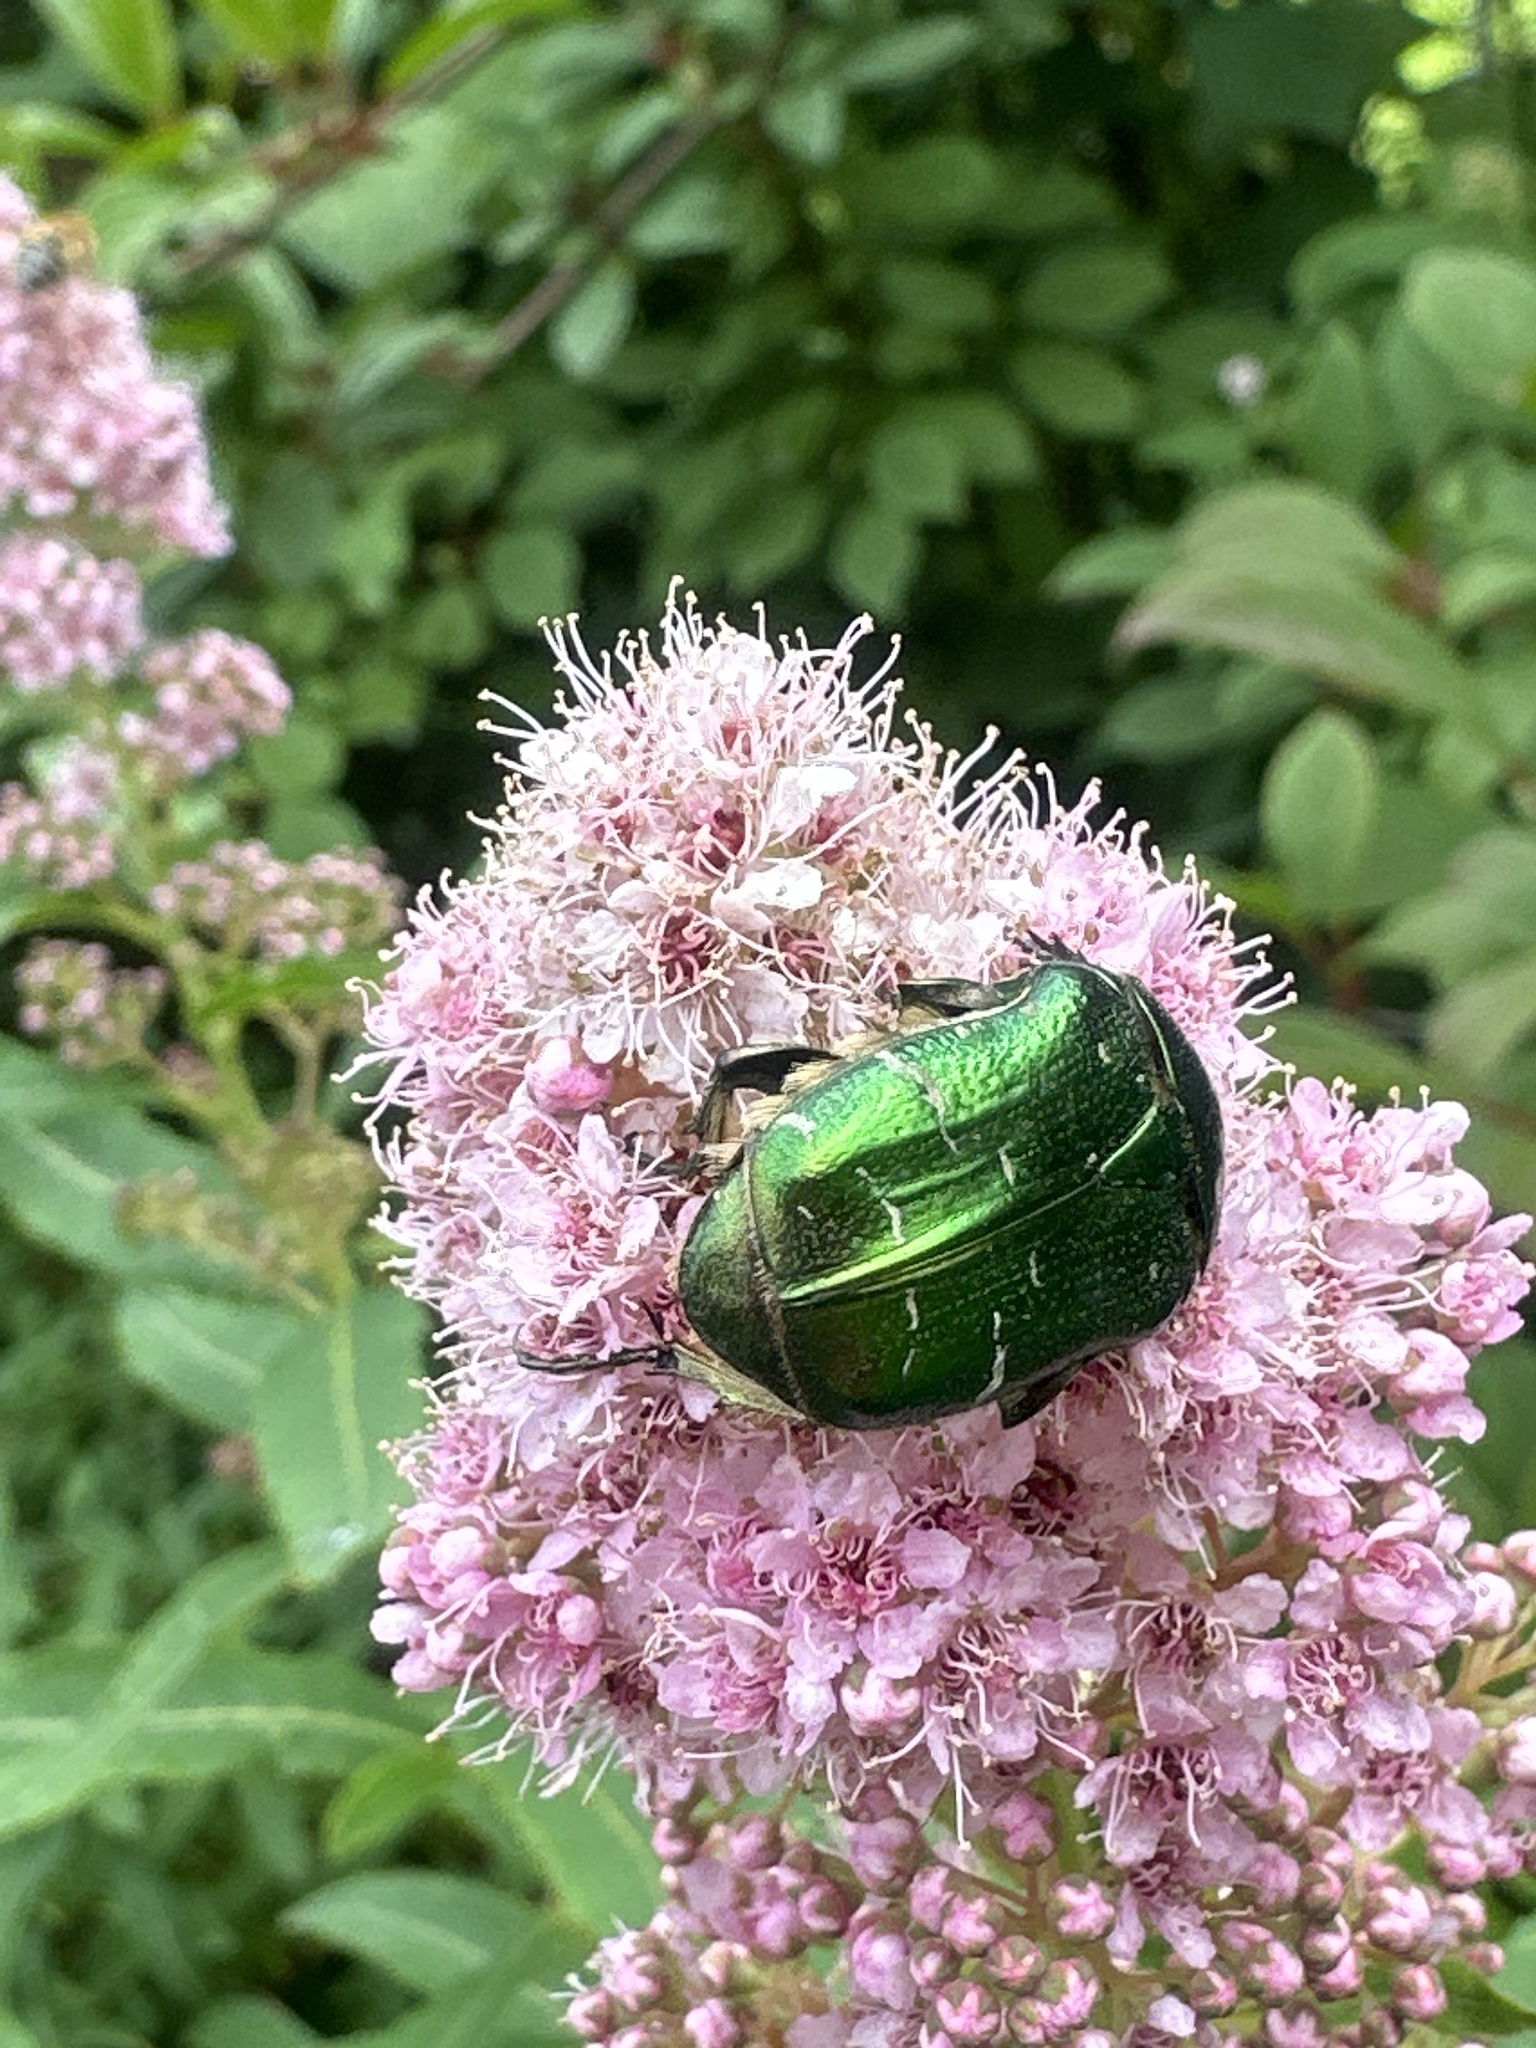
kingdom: Animalia
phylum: Arthropoda
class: Insecta
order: Coleoptera
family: Scarabaeidae
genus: Cetonia
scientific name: Cetonia aurata
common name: Rose chafer
